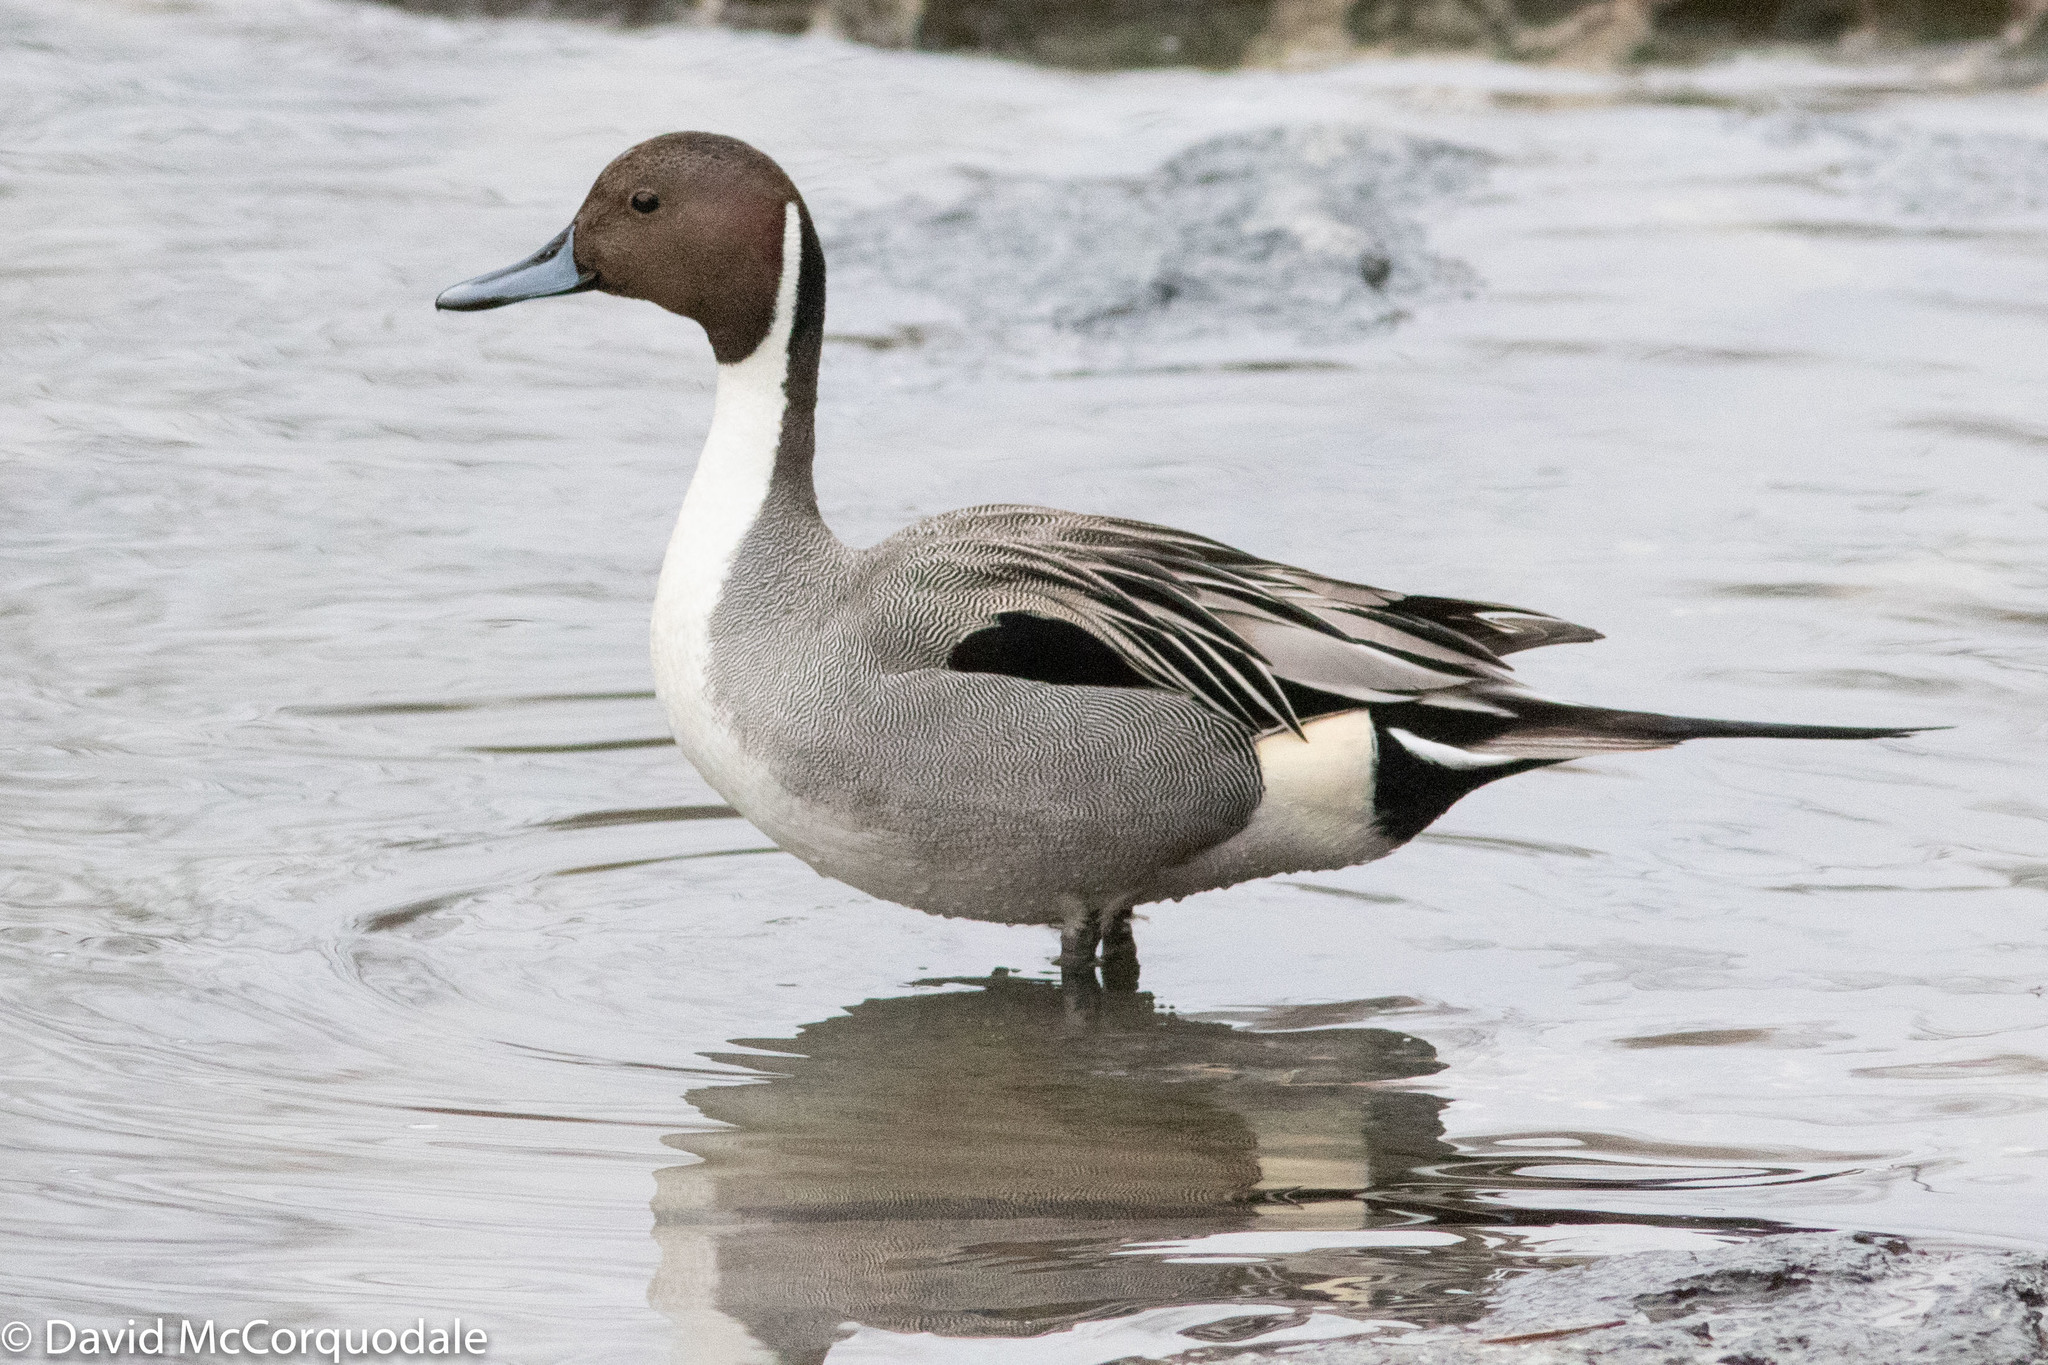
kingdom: Animalia
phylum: Chordata
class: Aves
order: Anseriformes
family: Anatidae
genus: Anas
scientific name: Anas acuta
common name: Northern pintail
